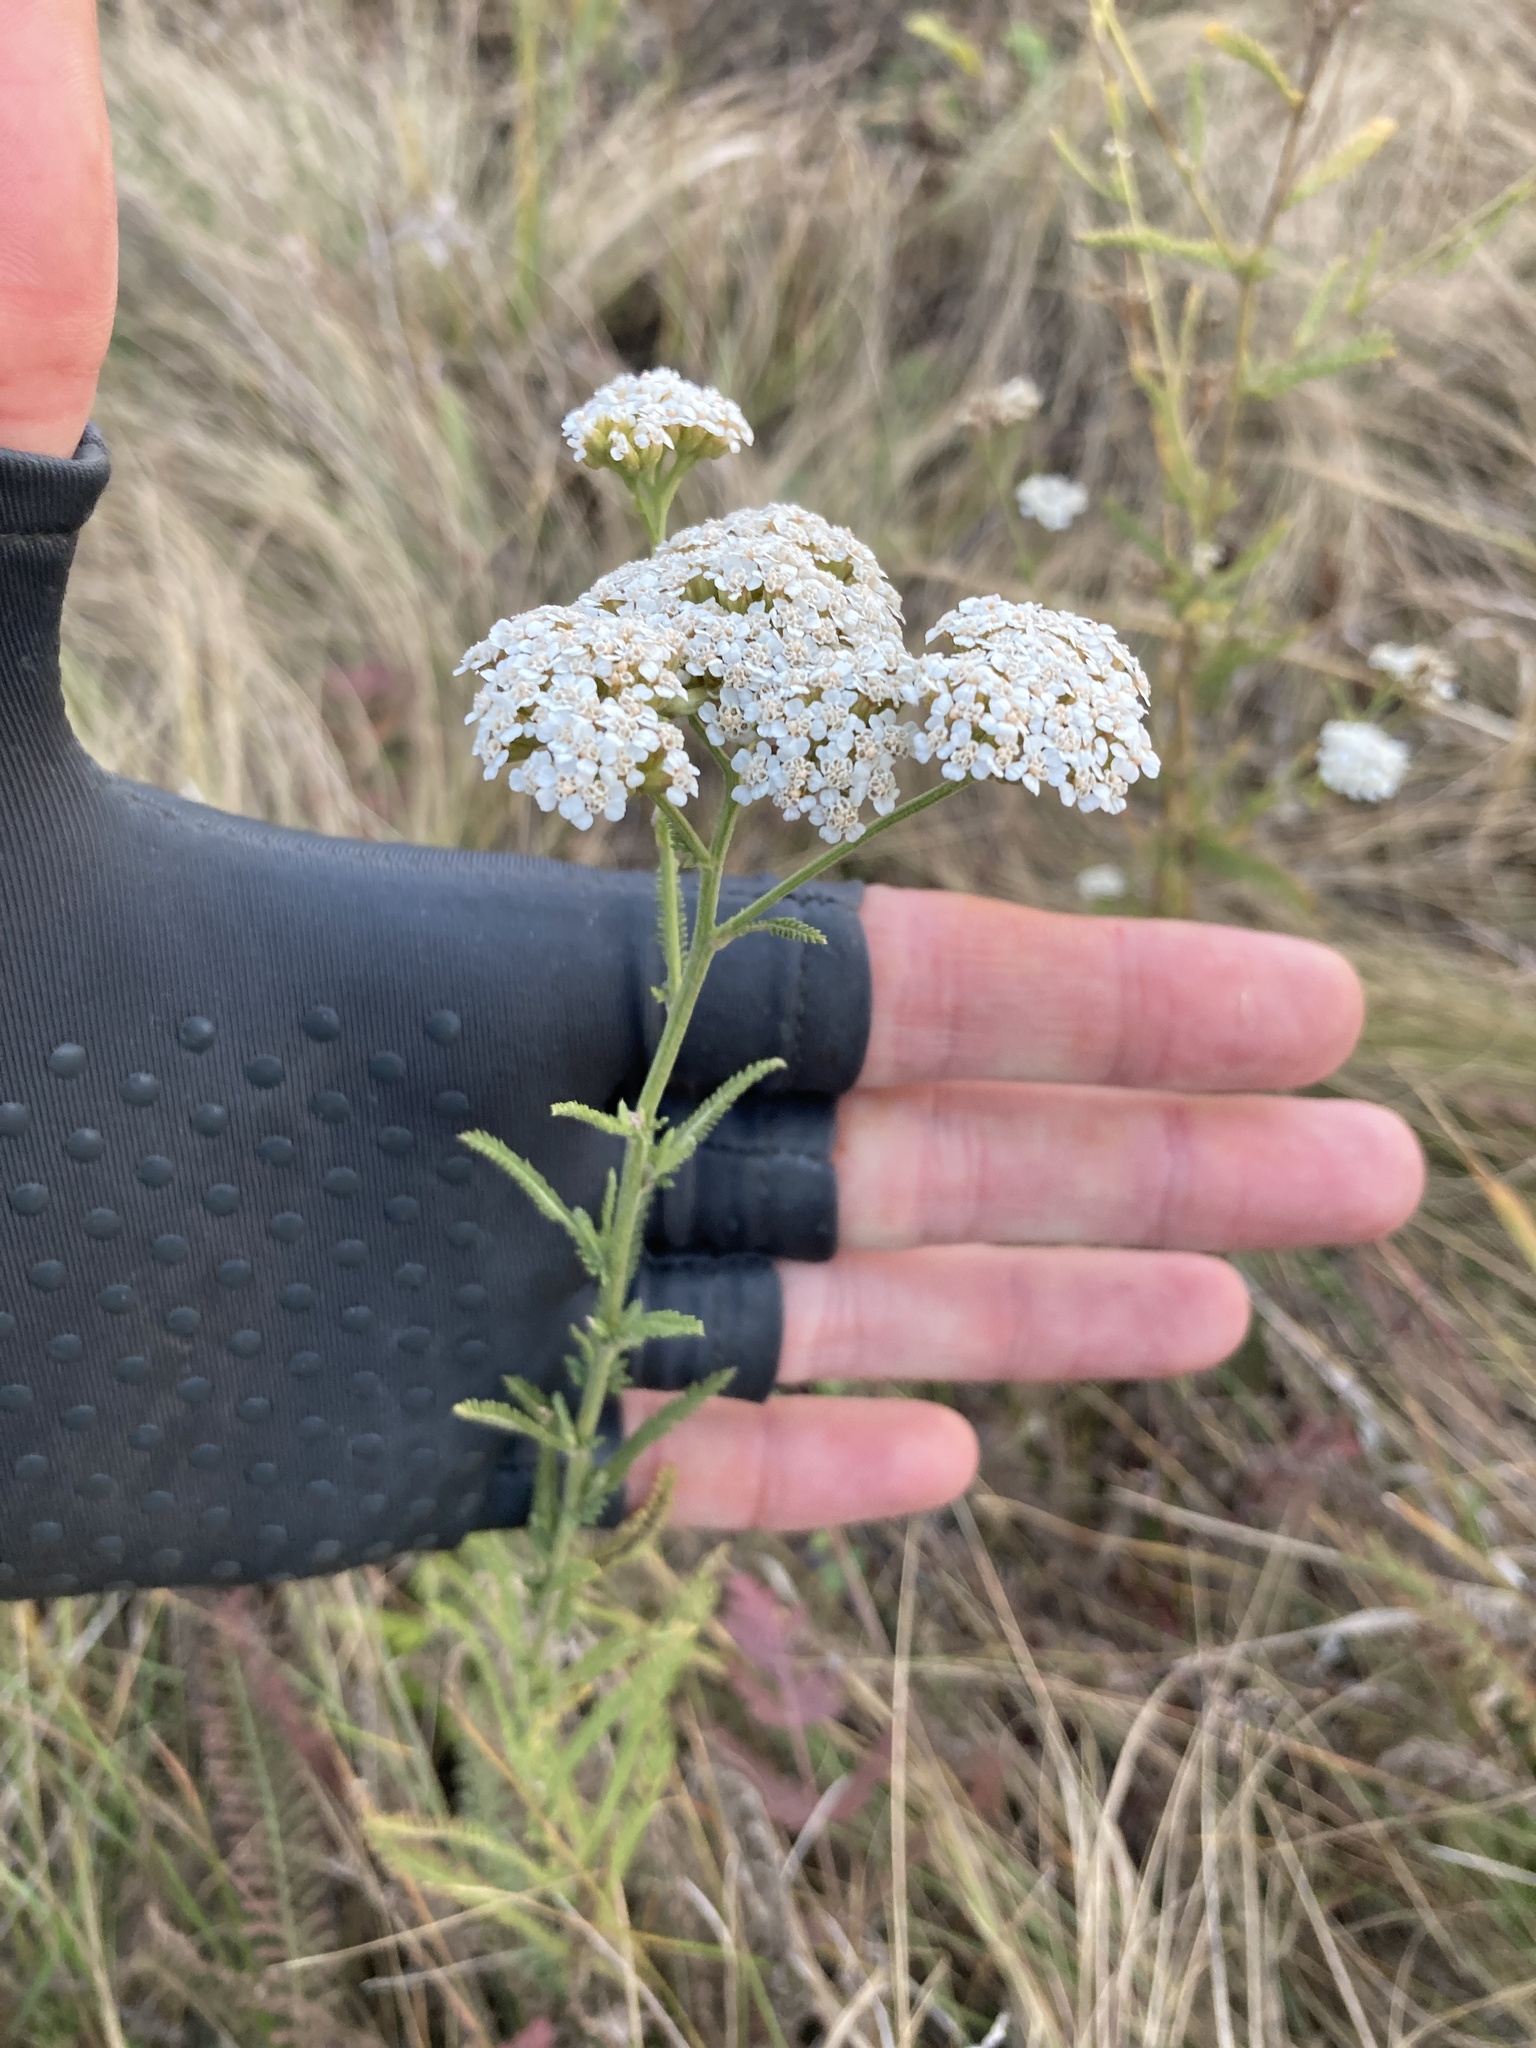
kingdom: Plantae
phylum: Tracheophyta
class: Magnoliopsida
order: Asterales
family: Asteraceae
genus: Achillea
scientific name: Achillea setacea
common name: Bristly yarrow
